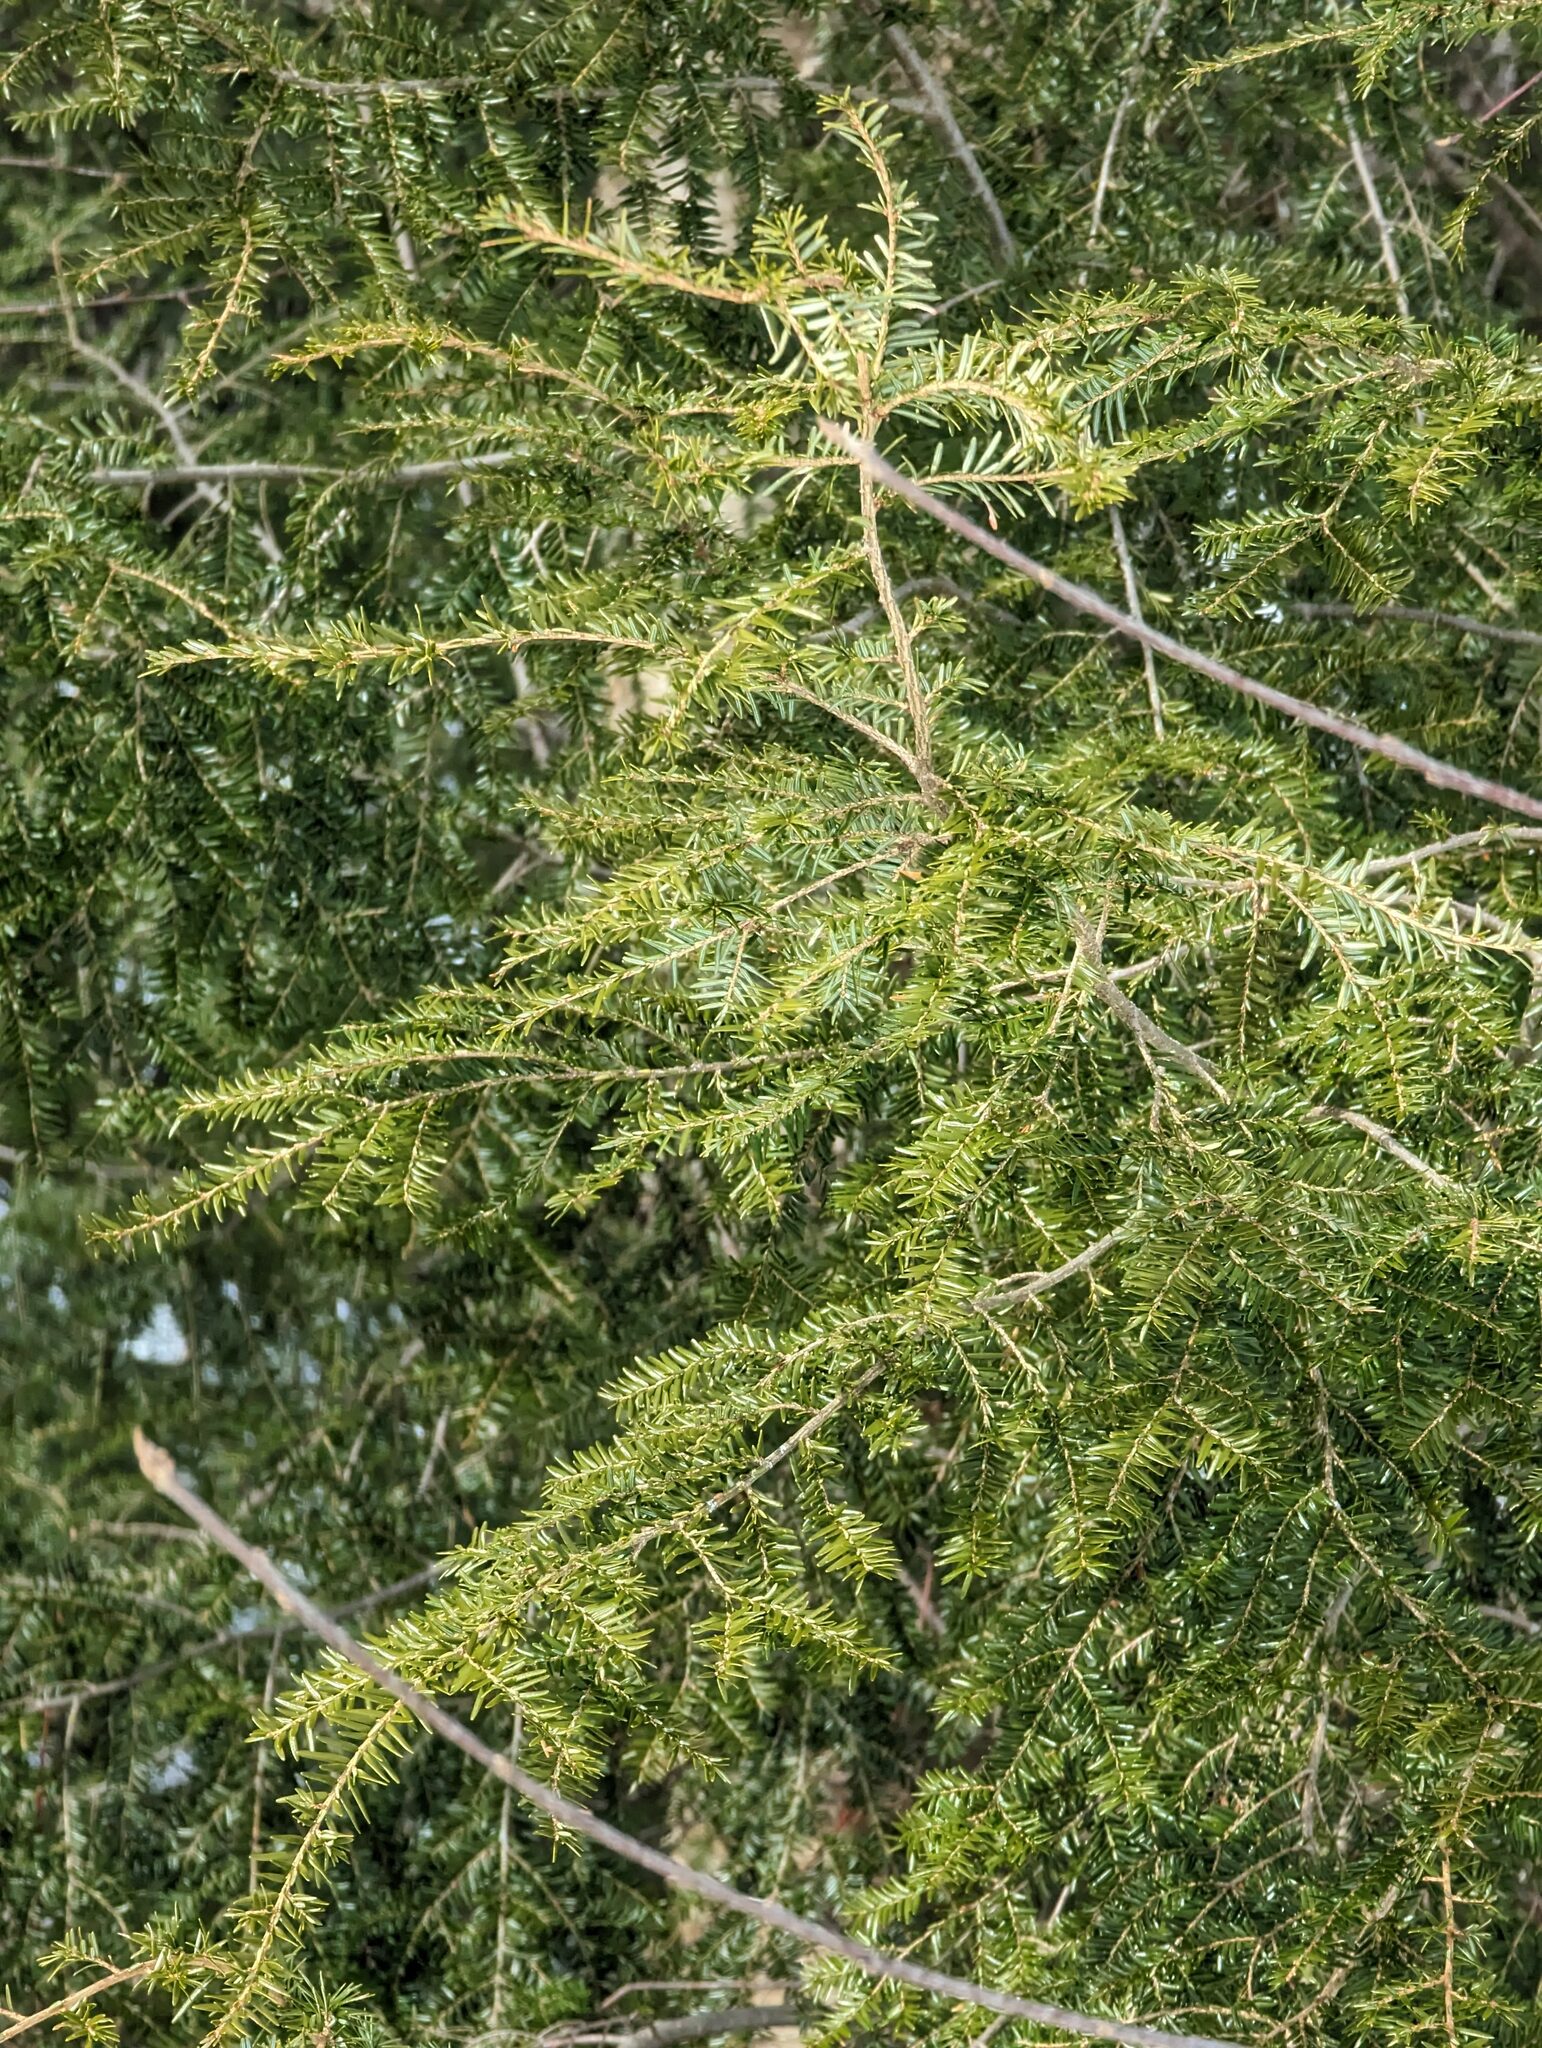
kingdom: Plantae
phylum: Tracheophyta
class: Pinopsida
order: Pinales
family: Pinaceae
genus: Tsuga
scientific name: Tsuga canadensis
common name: Eastern hemlock
